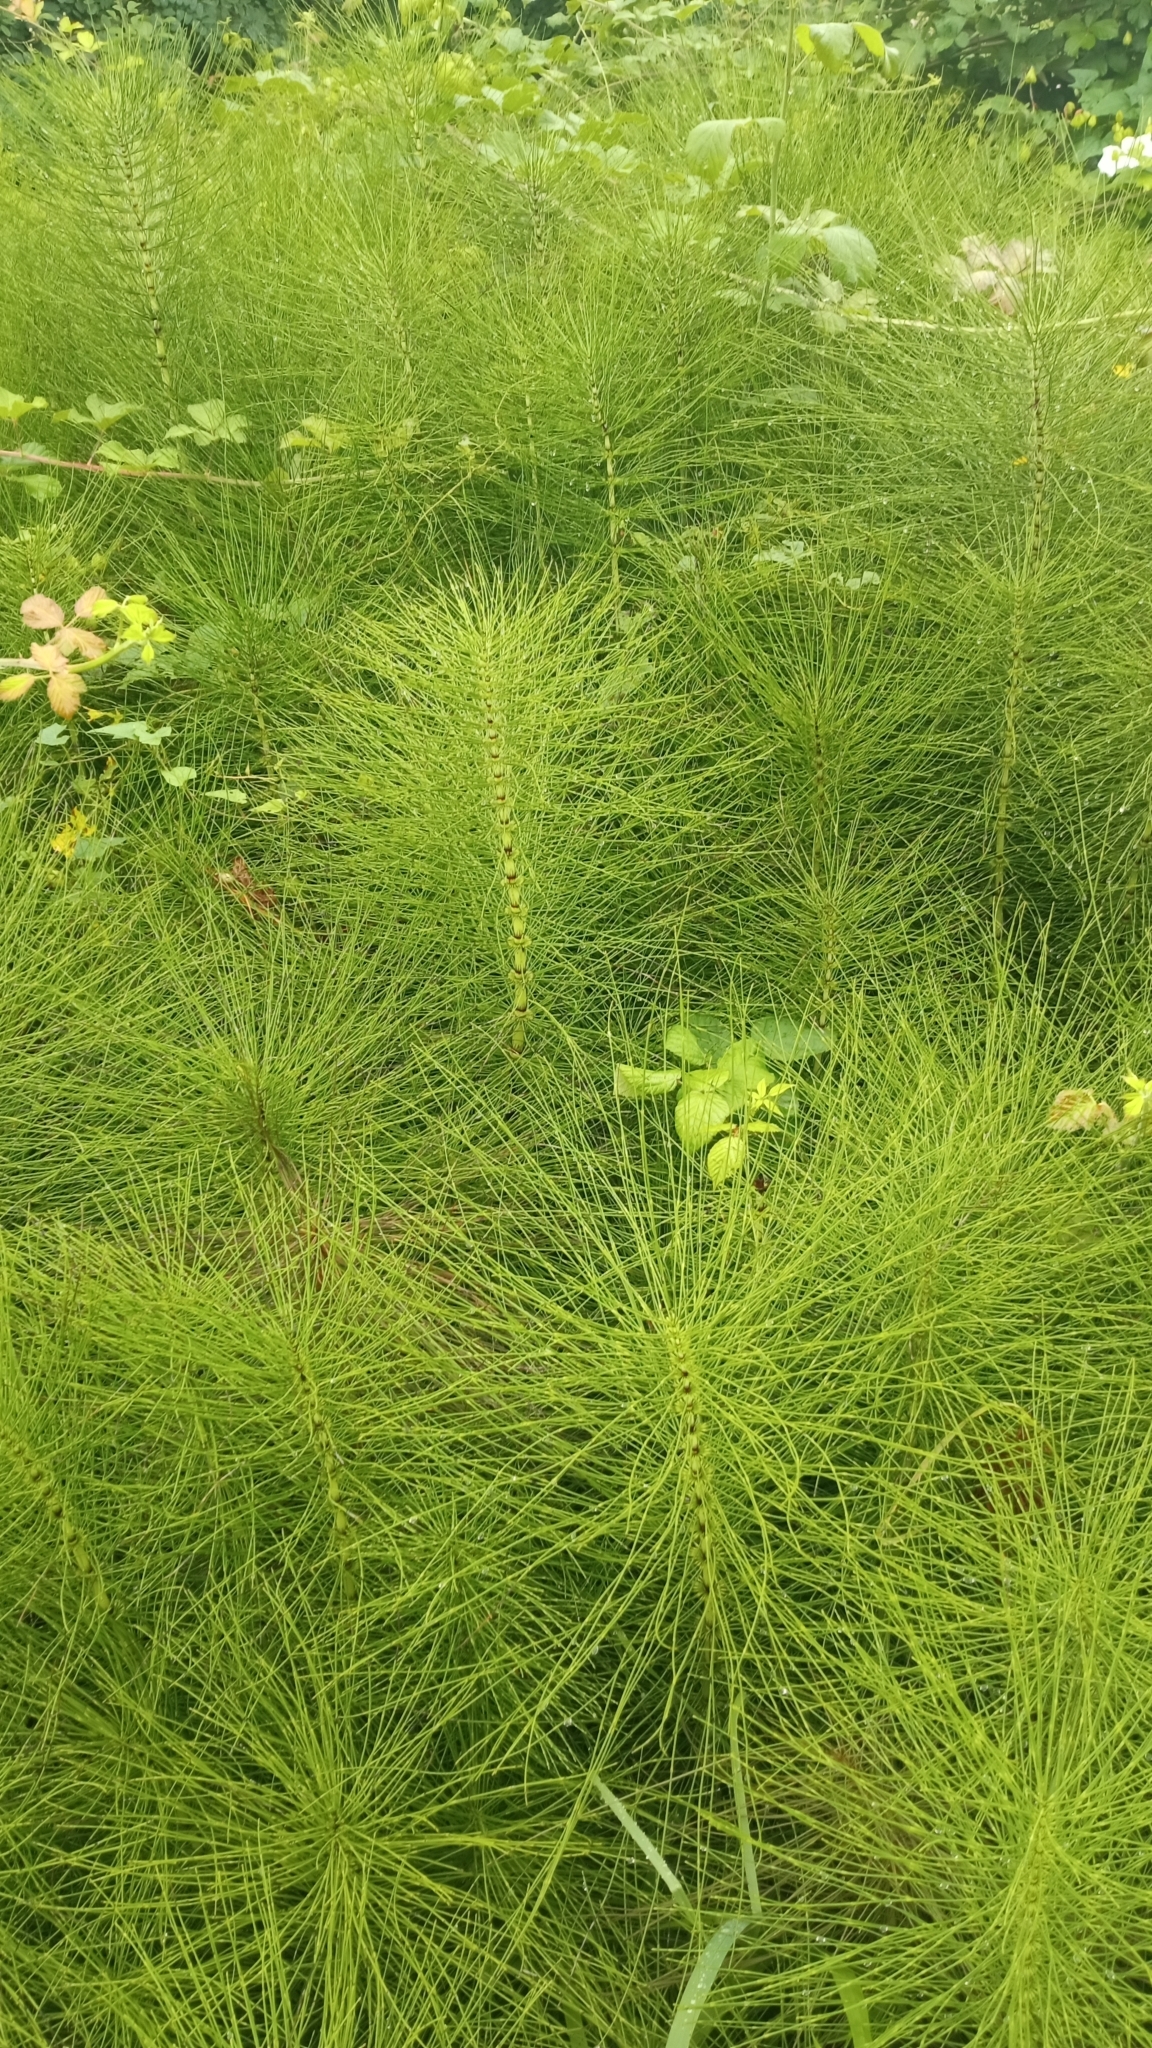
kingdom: Plantae
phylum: Tracheophyta
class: Polypodiopsida
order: Equisetales
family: Equisetaceae
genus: Equisetum
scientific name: Equisetum telmateia
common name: Great horsetail
